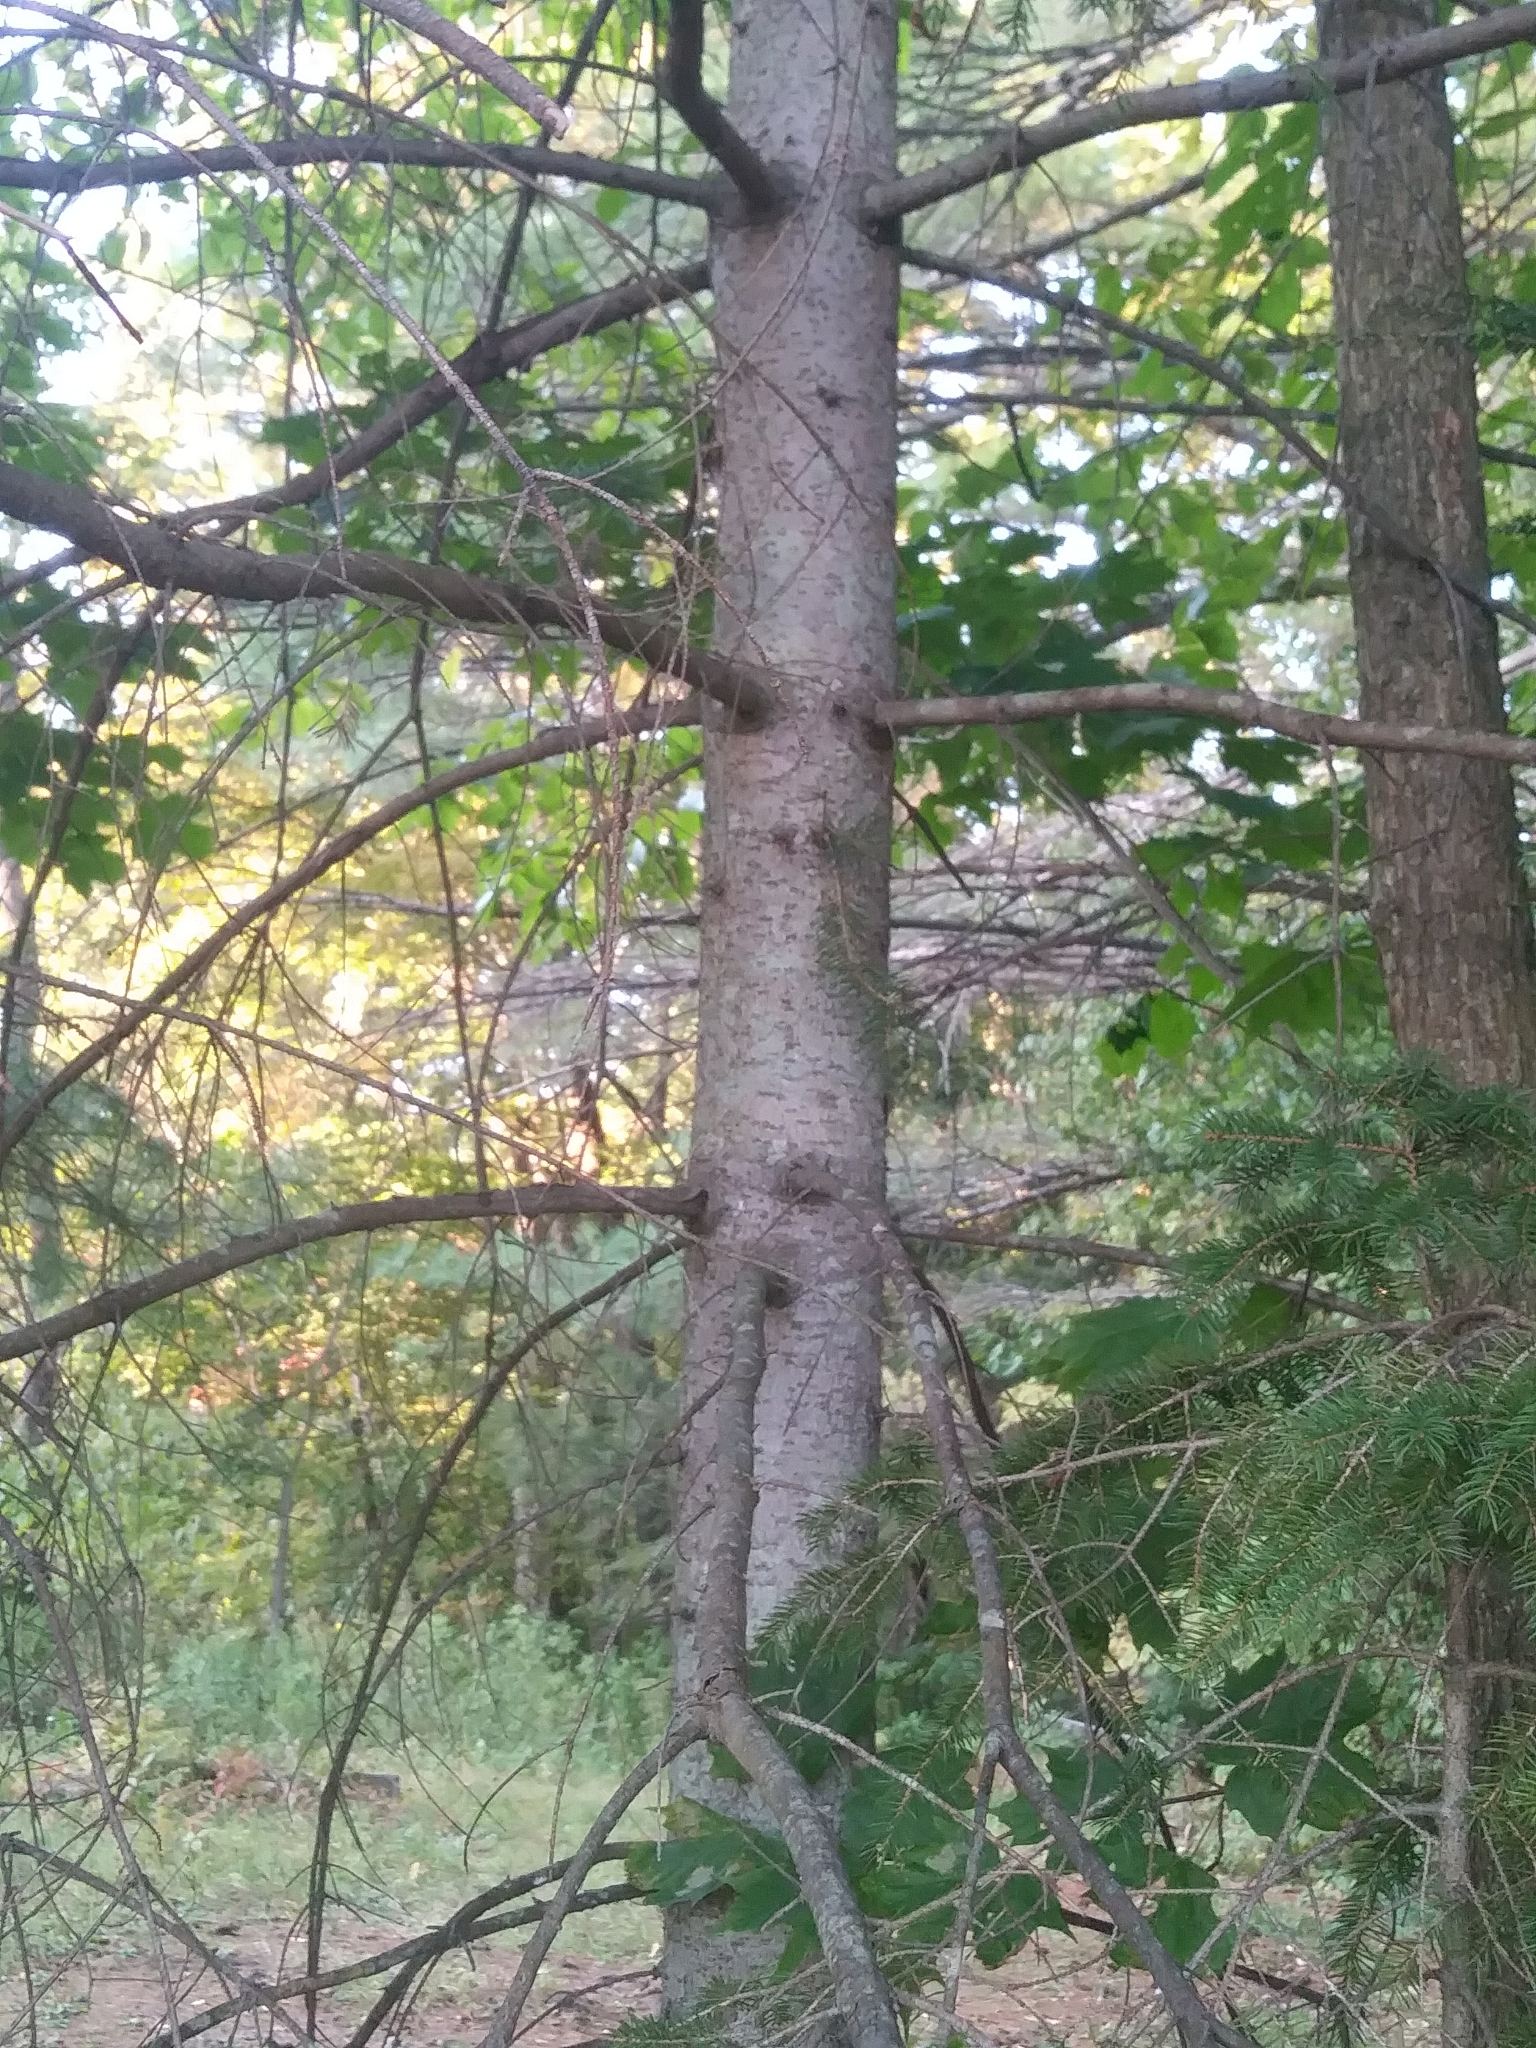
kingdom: Plantae
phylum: Tracheophyta
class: Pinopsida
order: Pinales
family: Pinaceae
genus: Abies
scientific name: Abies balsamea
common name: Balsam fir
